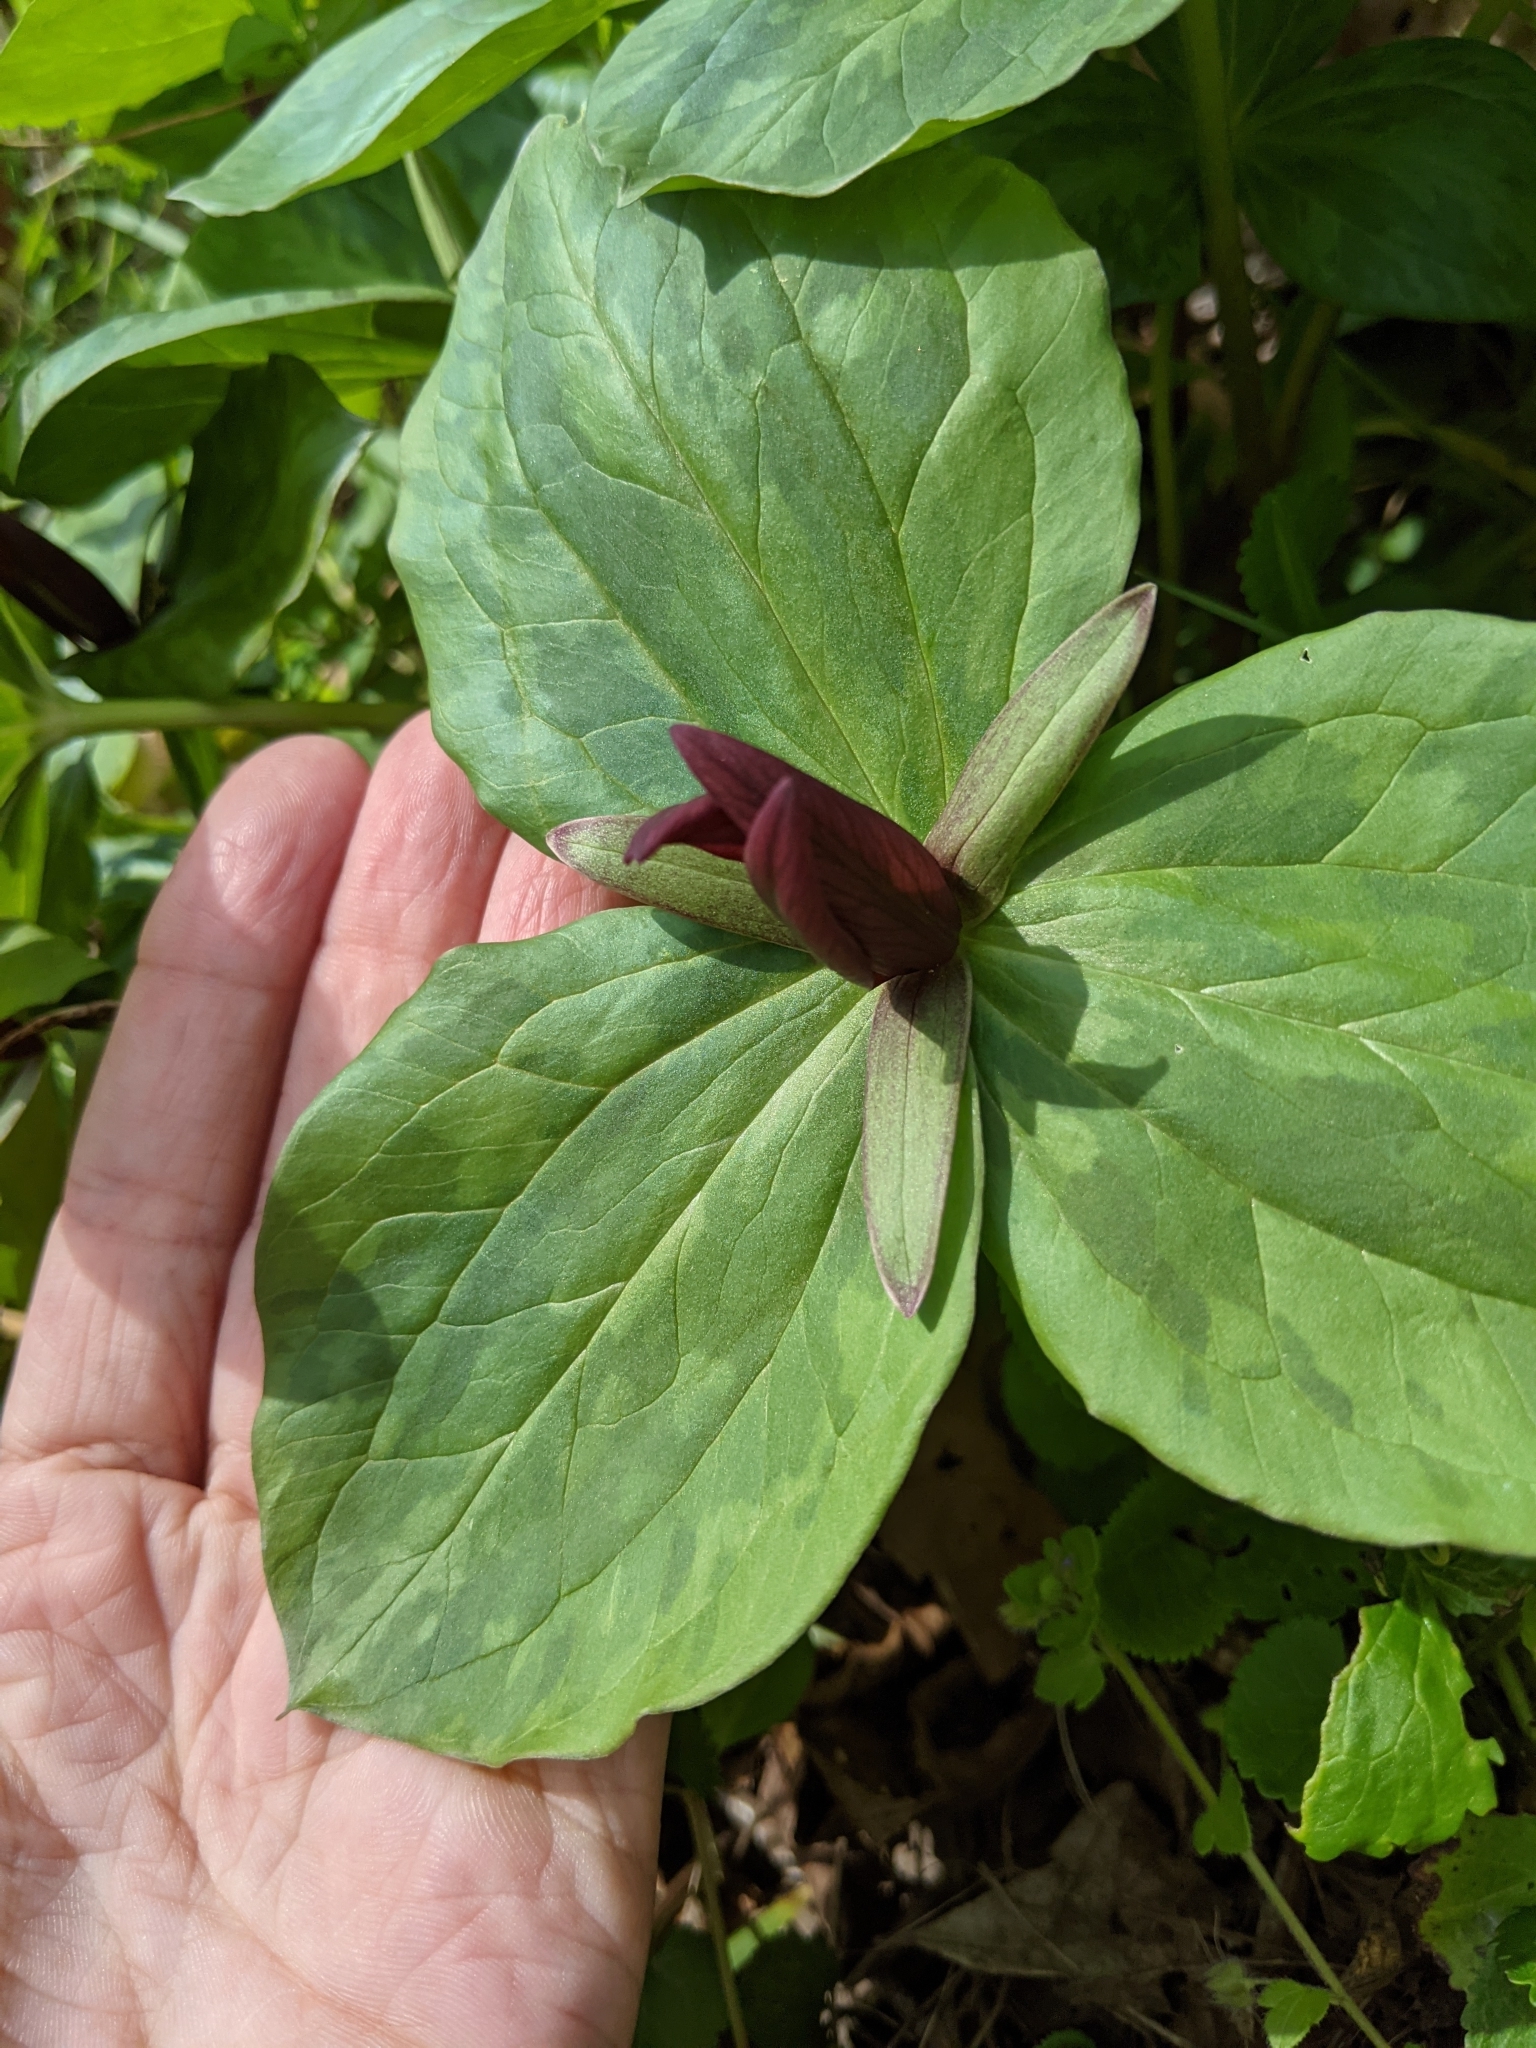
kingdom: Plantae
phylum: Tracheophyta
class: Liliopsida
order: Liliales
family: Melanthiaceae
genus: Trillium
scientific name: Trillium sessile
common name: Sessile trillium
